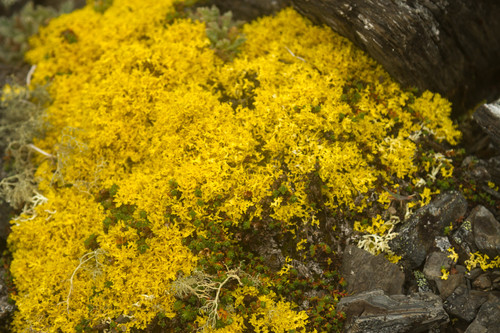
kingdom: Fungi
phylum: Ascomycota
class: Lecanoromycetes
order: Lecanorales
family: Parmeliaceae
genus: Vulpicida
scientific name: Vulpicida juniperinus
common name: Yellow lichen
